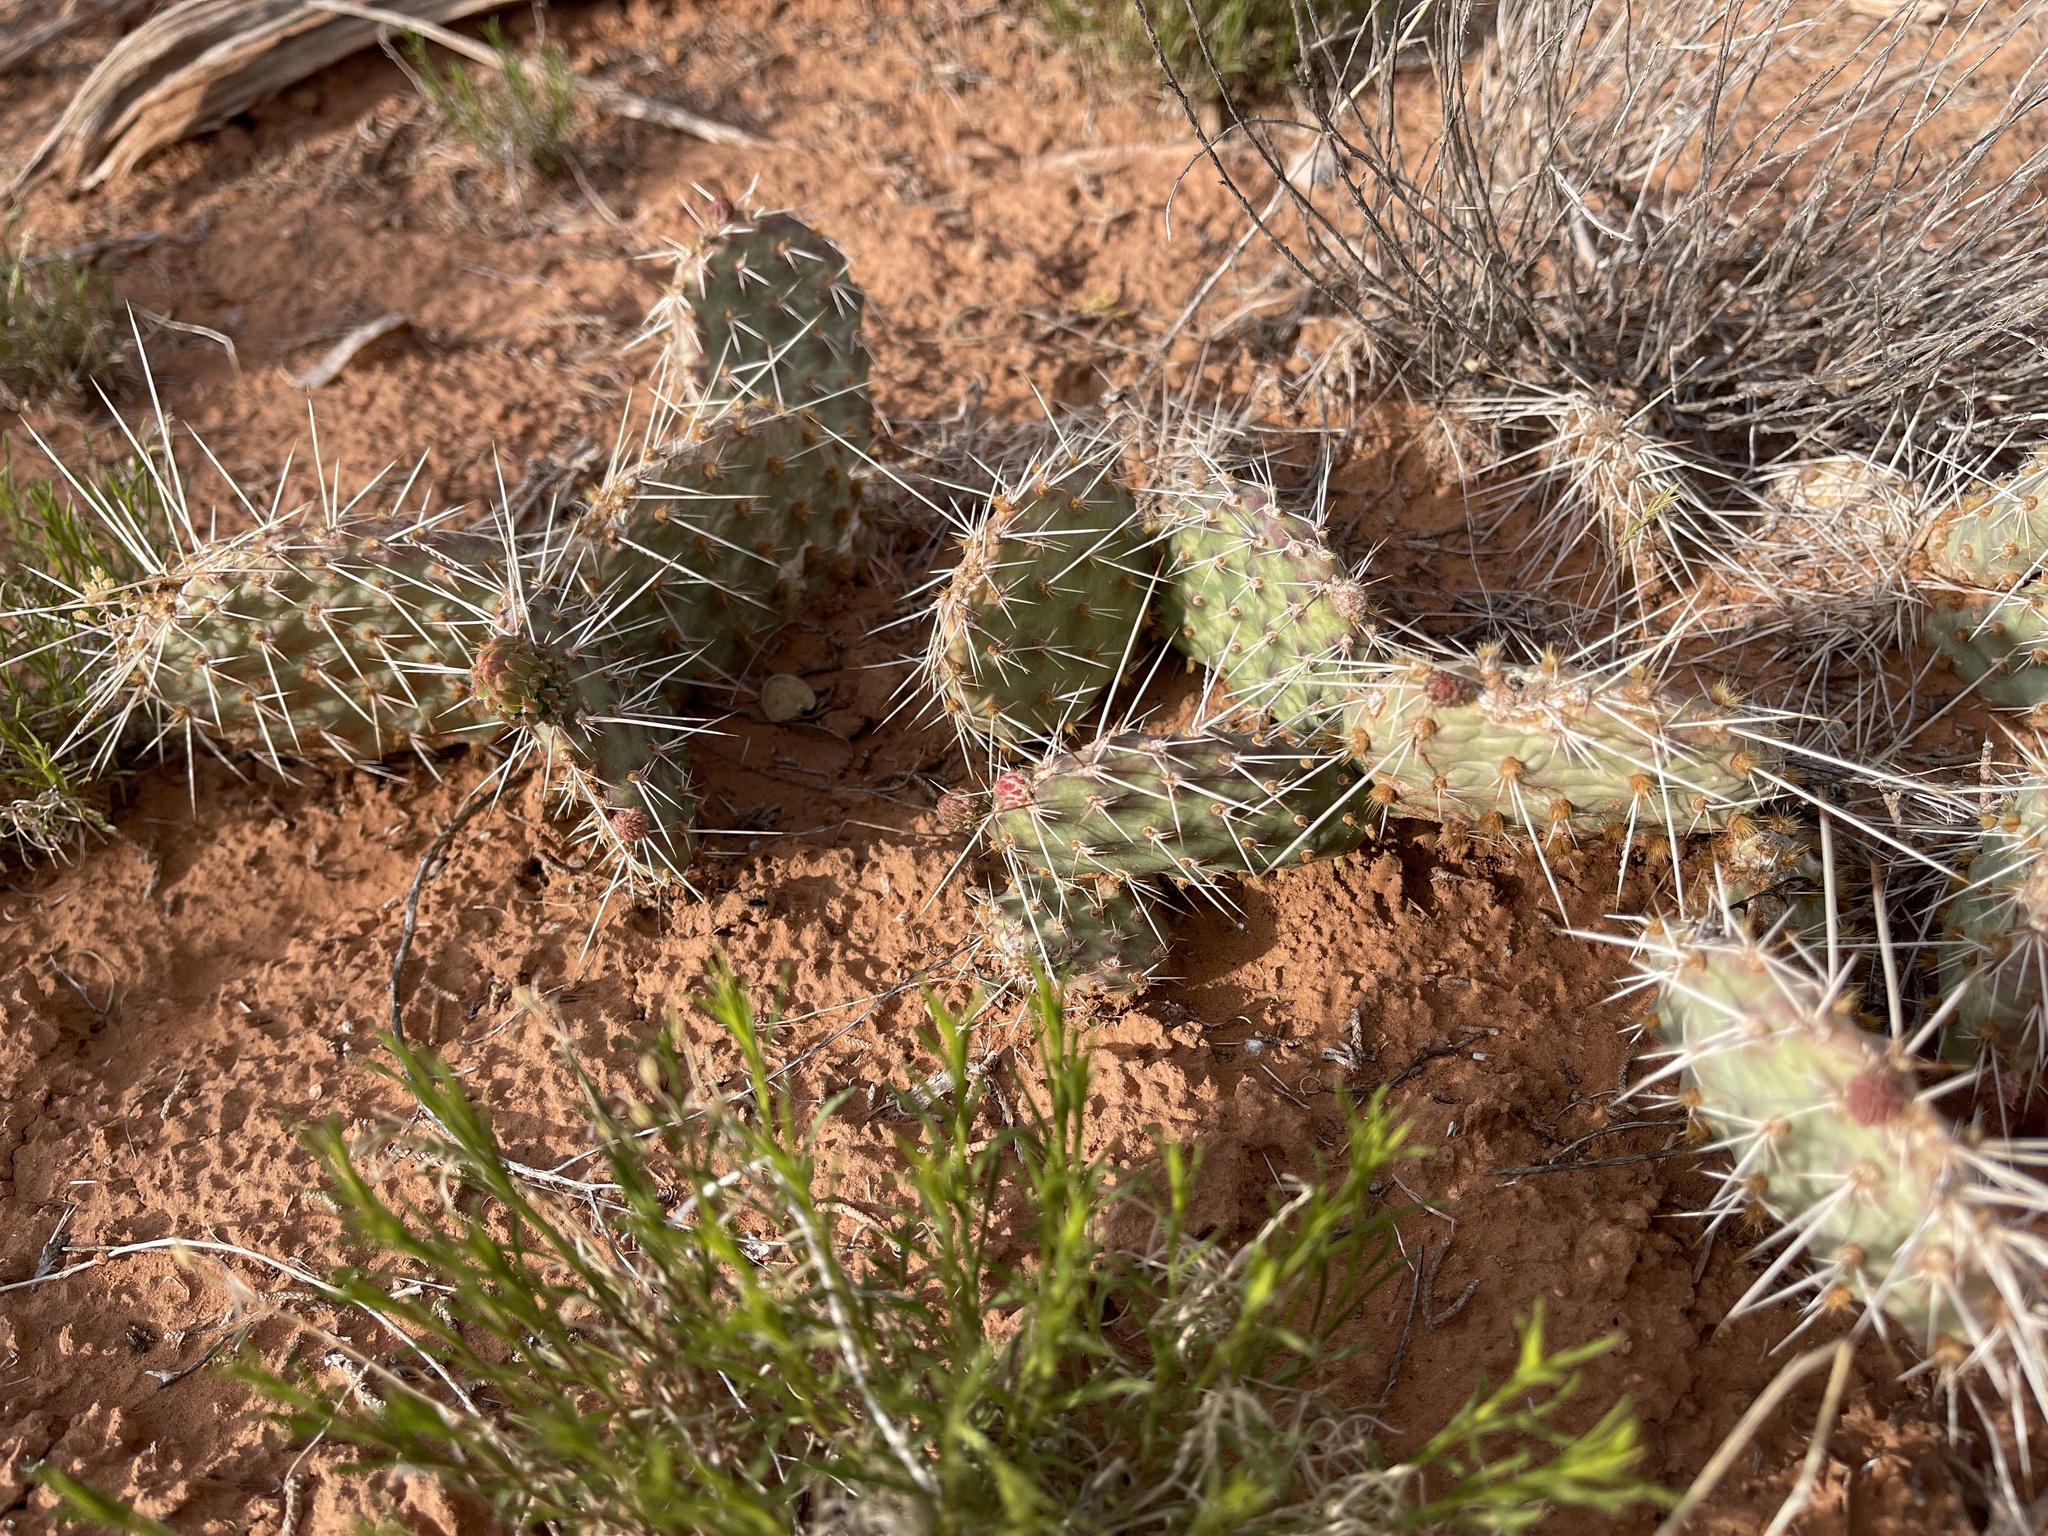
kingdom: Plantae
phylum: Tracheophyta
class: Magnoliopsida
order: Caryophyllales
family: Cactaceae
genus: Opuntia
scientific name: Opuntia polyacantha
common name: Plains prickly-pear
